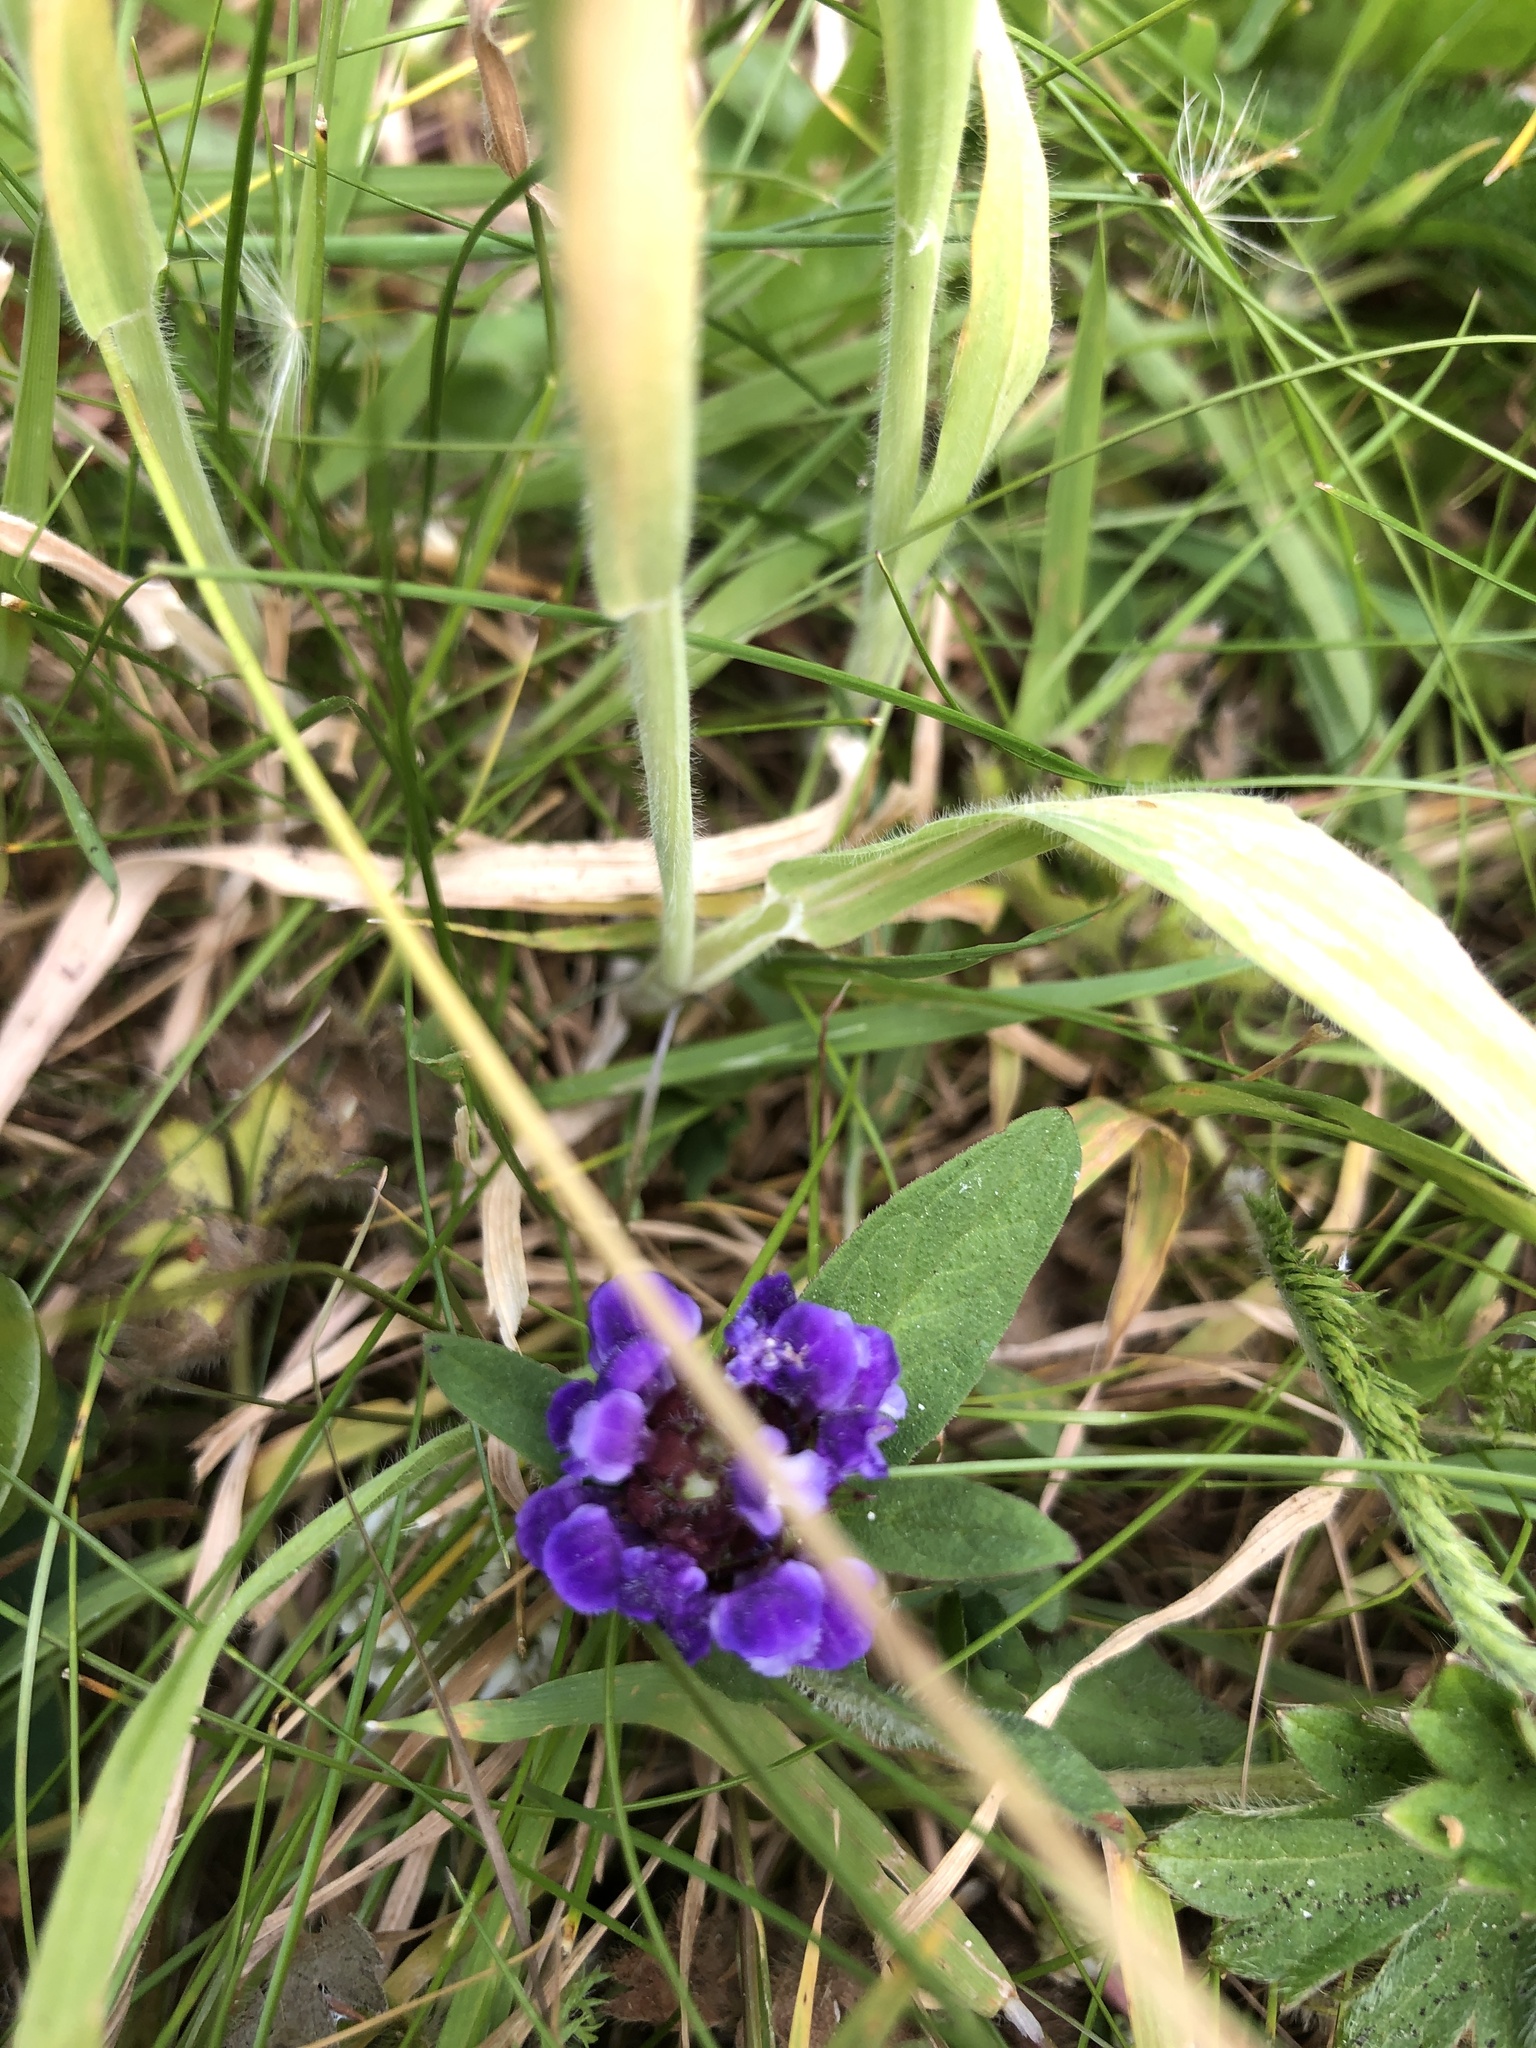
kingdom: Plantae
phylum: Tracheophyta
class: Magnoliopsida
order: Lamiales
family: Lamiaceae
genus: Prunella
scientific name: Prunella vulgaris
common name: Heal-all
